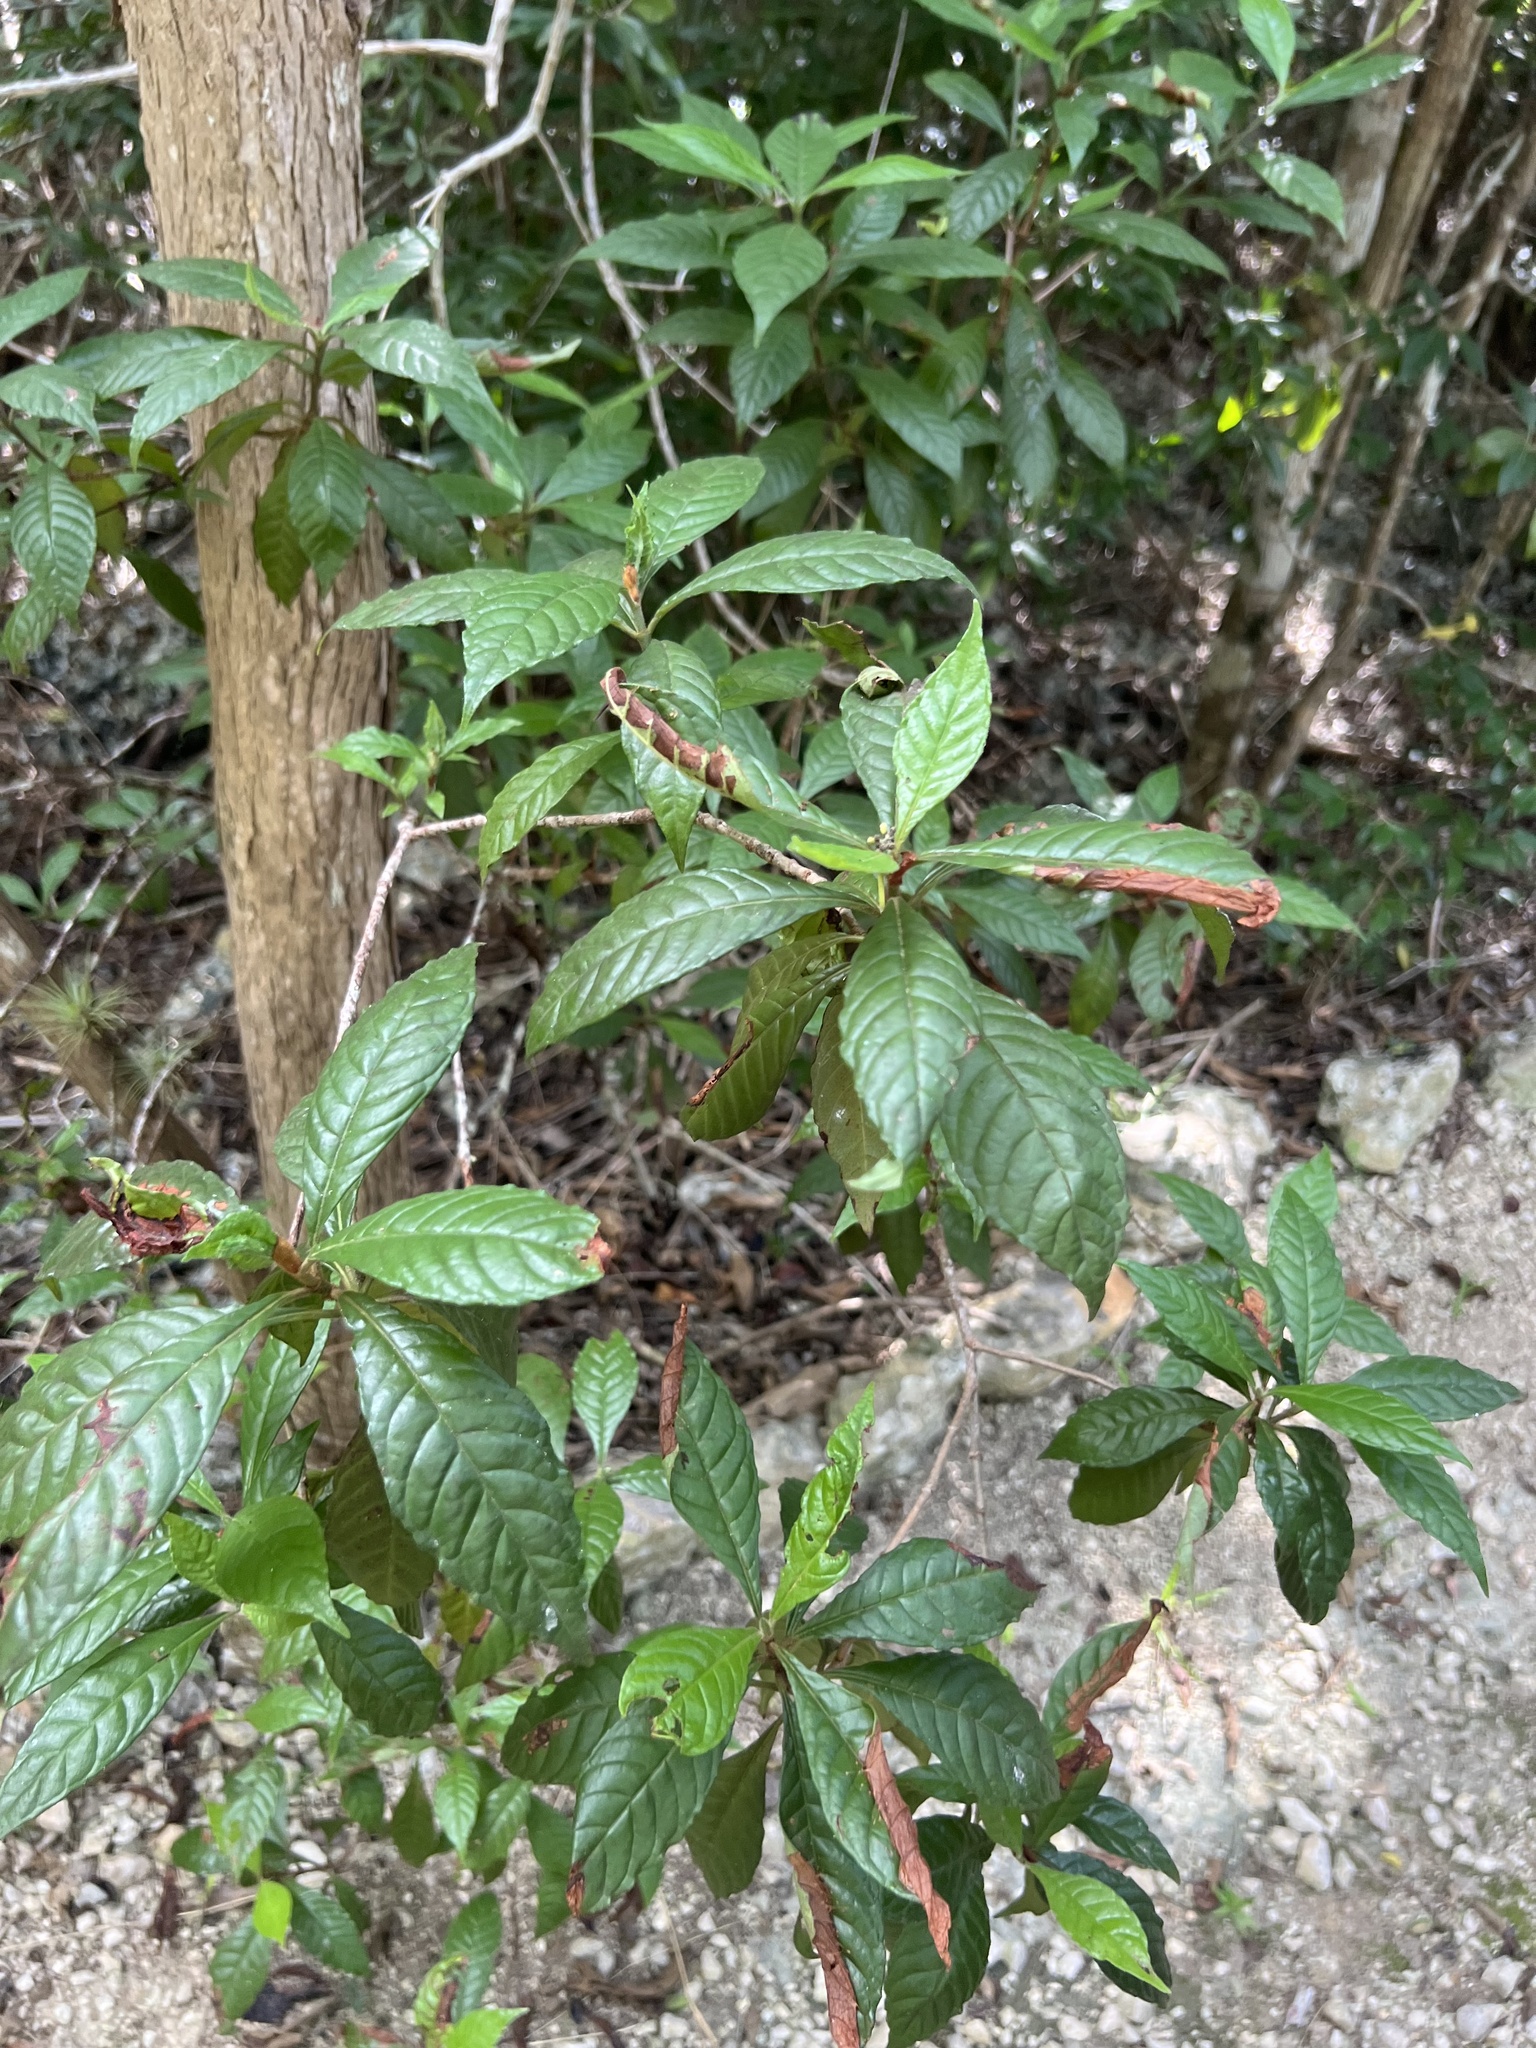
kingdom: Plantae
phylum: Tracheophyta
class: Magnoliopsida
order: Gentianales
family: Rubiaceae
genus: Psychotria
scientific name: Psychotria nervosa
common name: Bastard cankerberry
